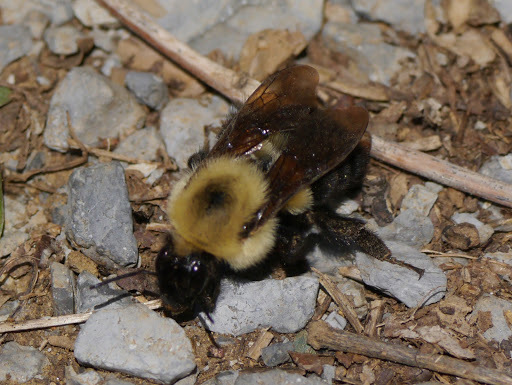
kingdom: Animalia
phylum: Arthropoda
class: Insecta
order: Hymenoptera
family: Apidae
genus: Bombus
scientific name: Bombus bimaculatus
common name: Two-spotted bumble bee
